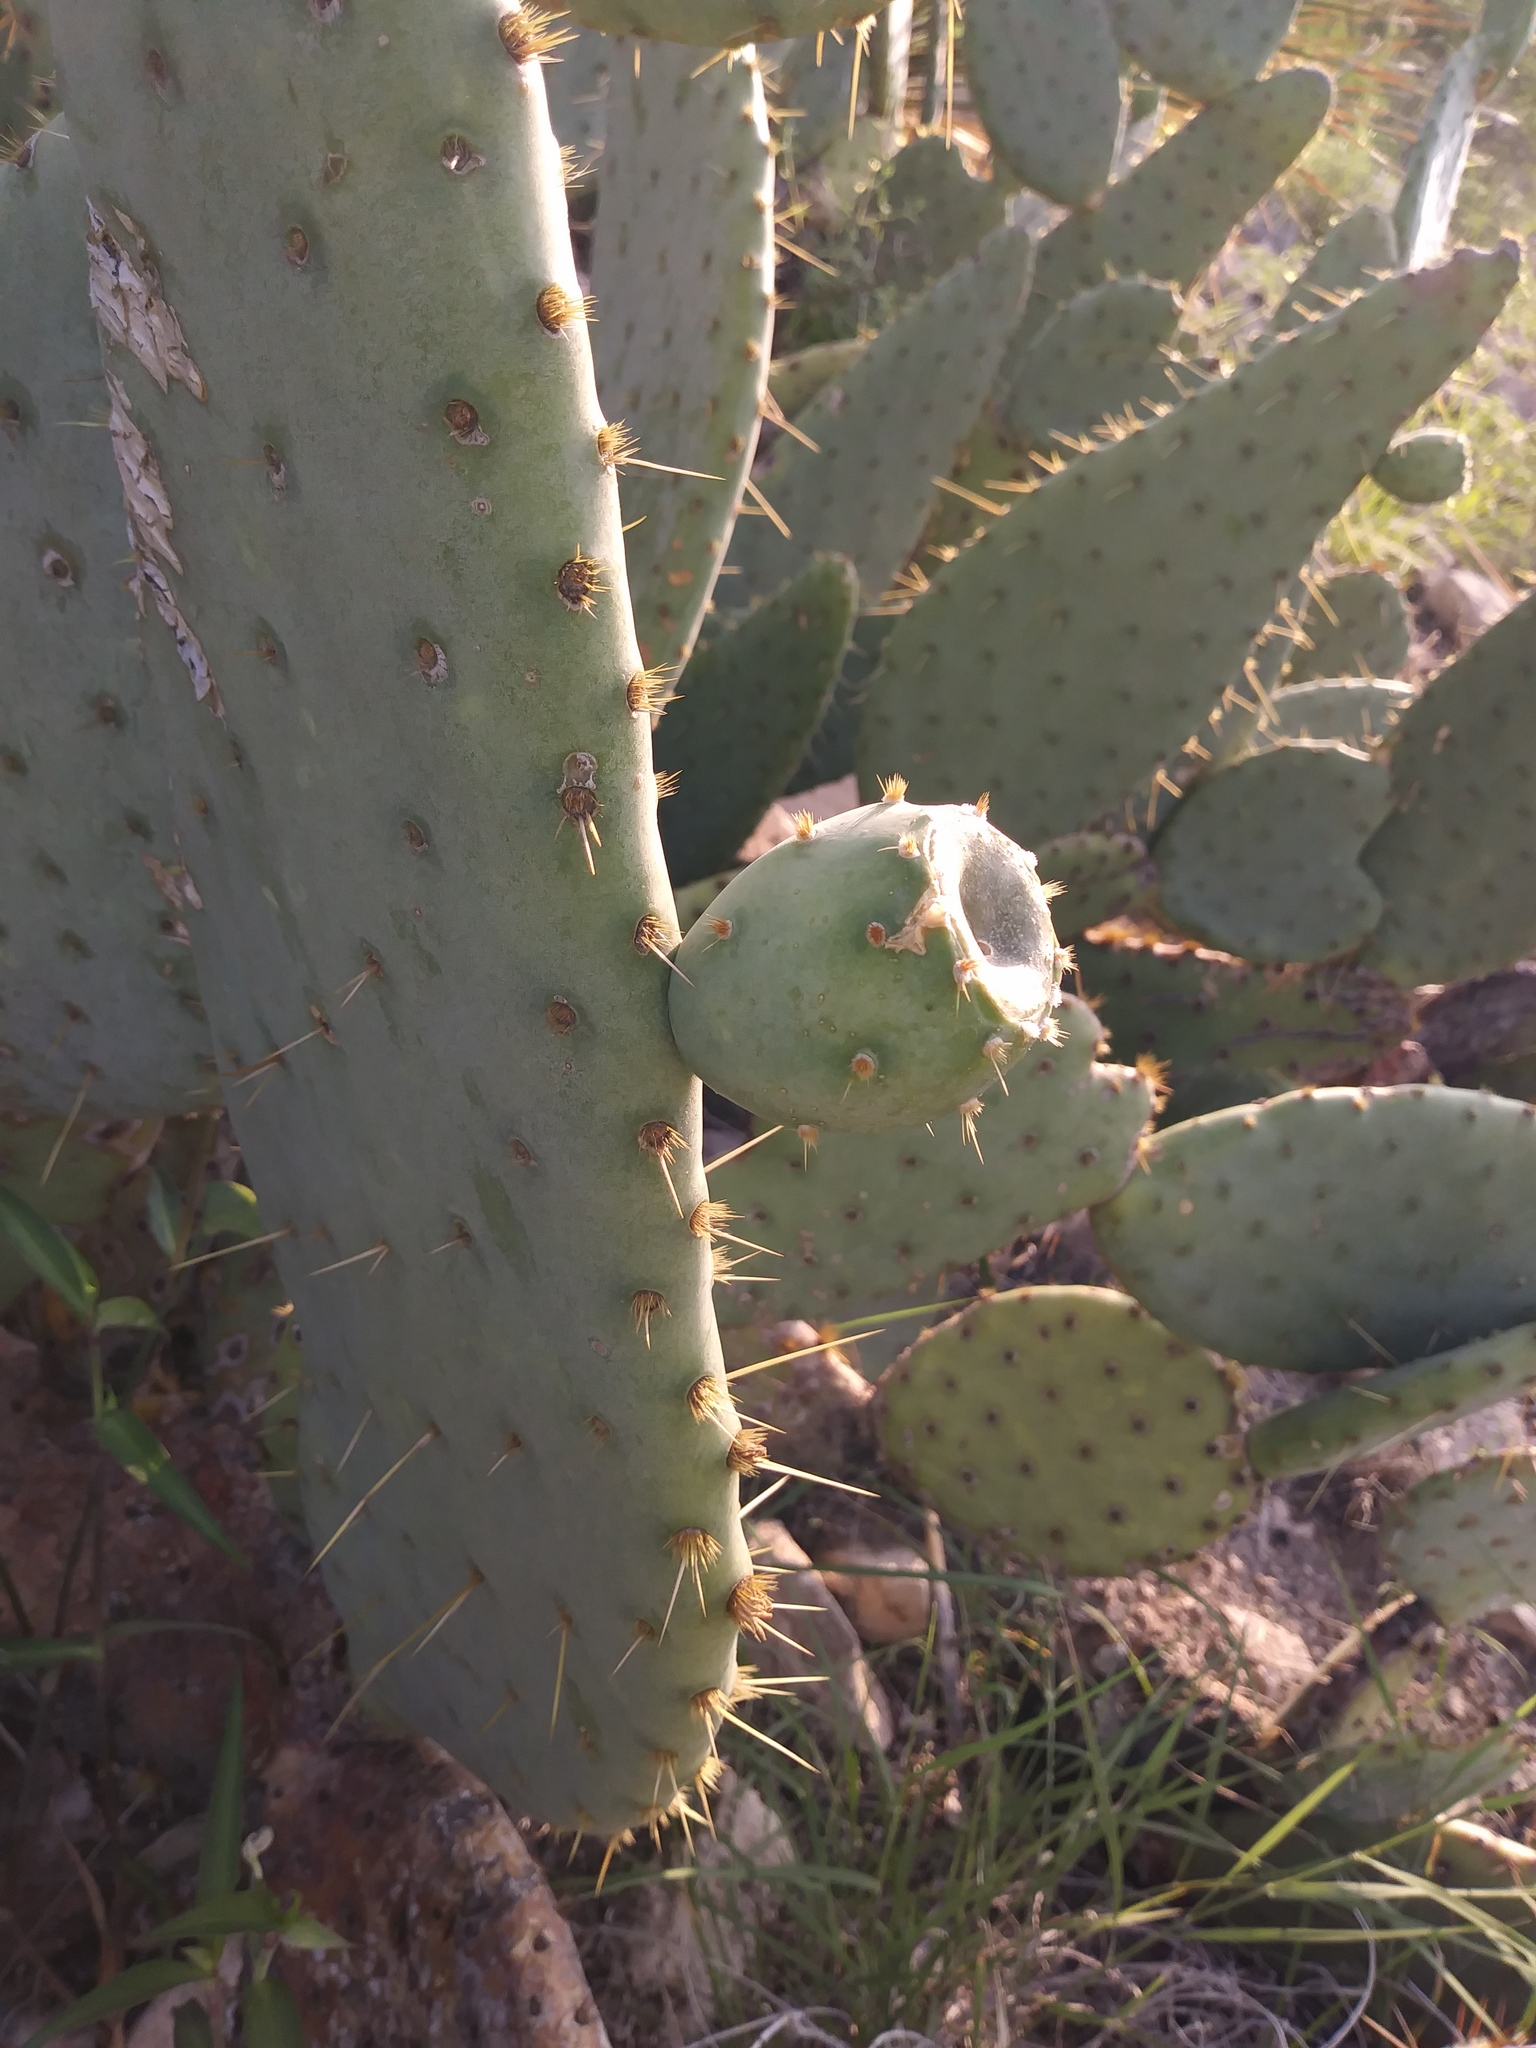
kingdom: Plantae
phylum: Tracheophyta
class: Magnoliopsida
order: Caryophyllales
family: Cactaceae
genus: Opuntia
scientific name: Opuntia engelmannii
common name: Cactus-apple
